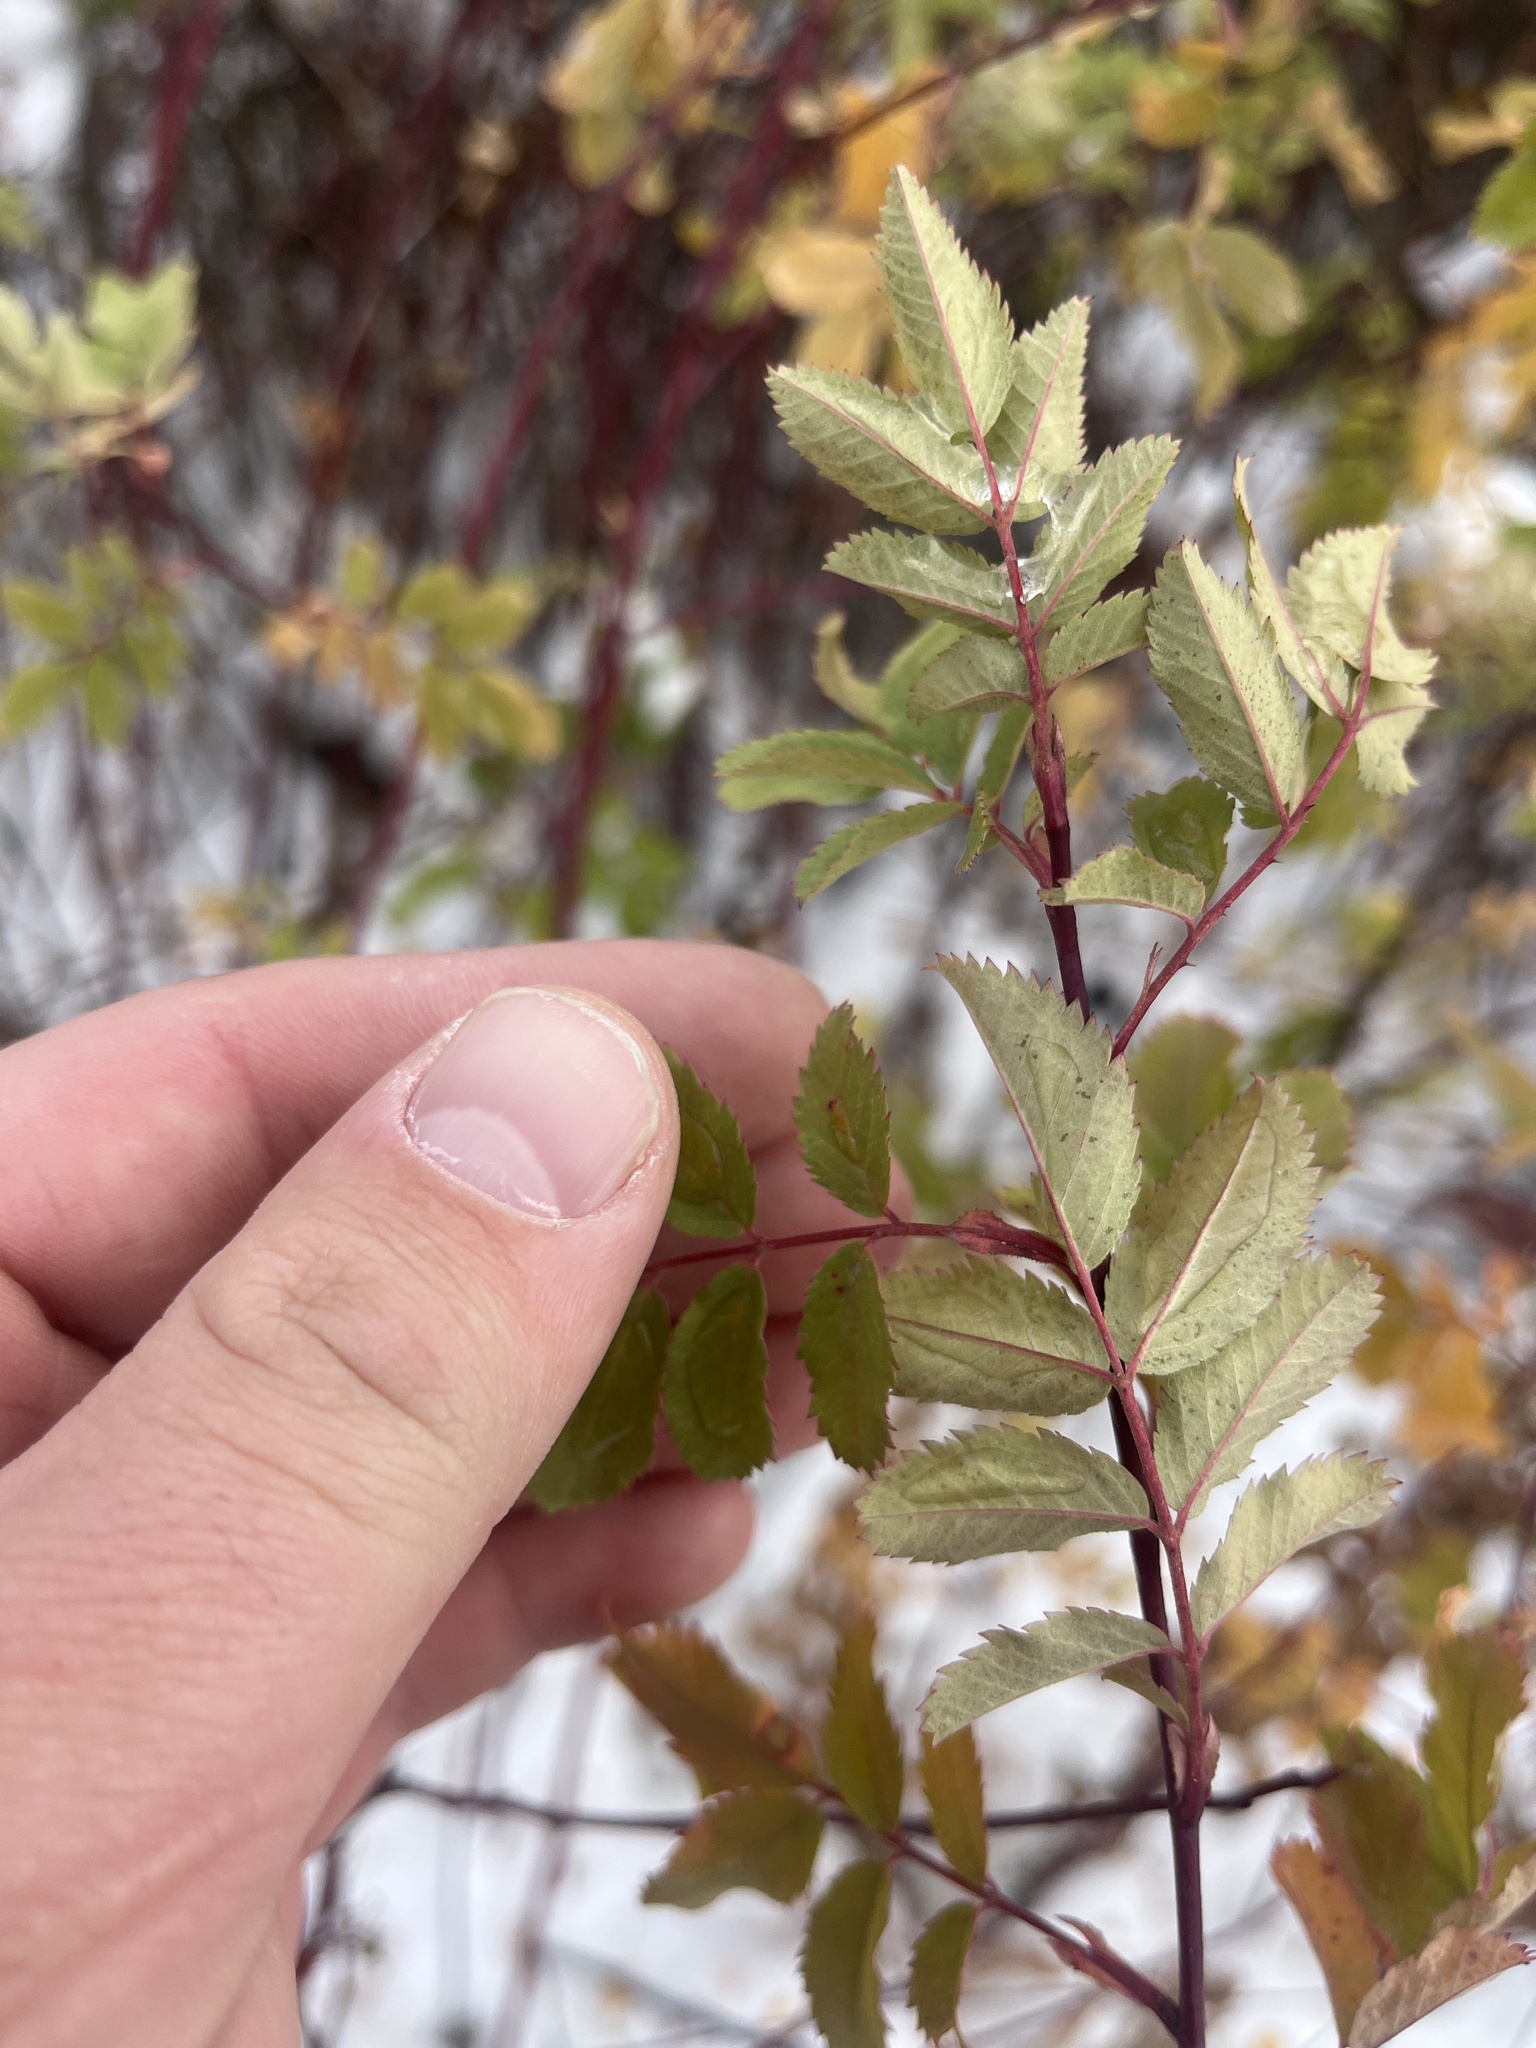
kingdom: Plantae
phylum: Tracheophyta
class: Magnoliopsida
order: Rosales
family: Rosaceae
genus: Rosa
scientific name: Rosa woodsii
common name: Woods's rose
